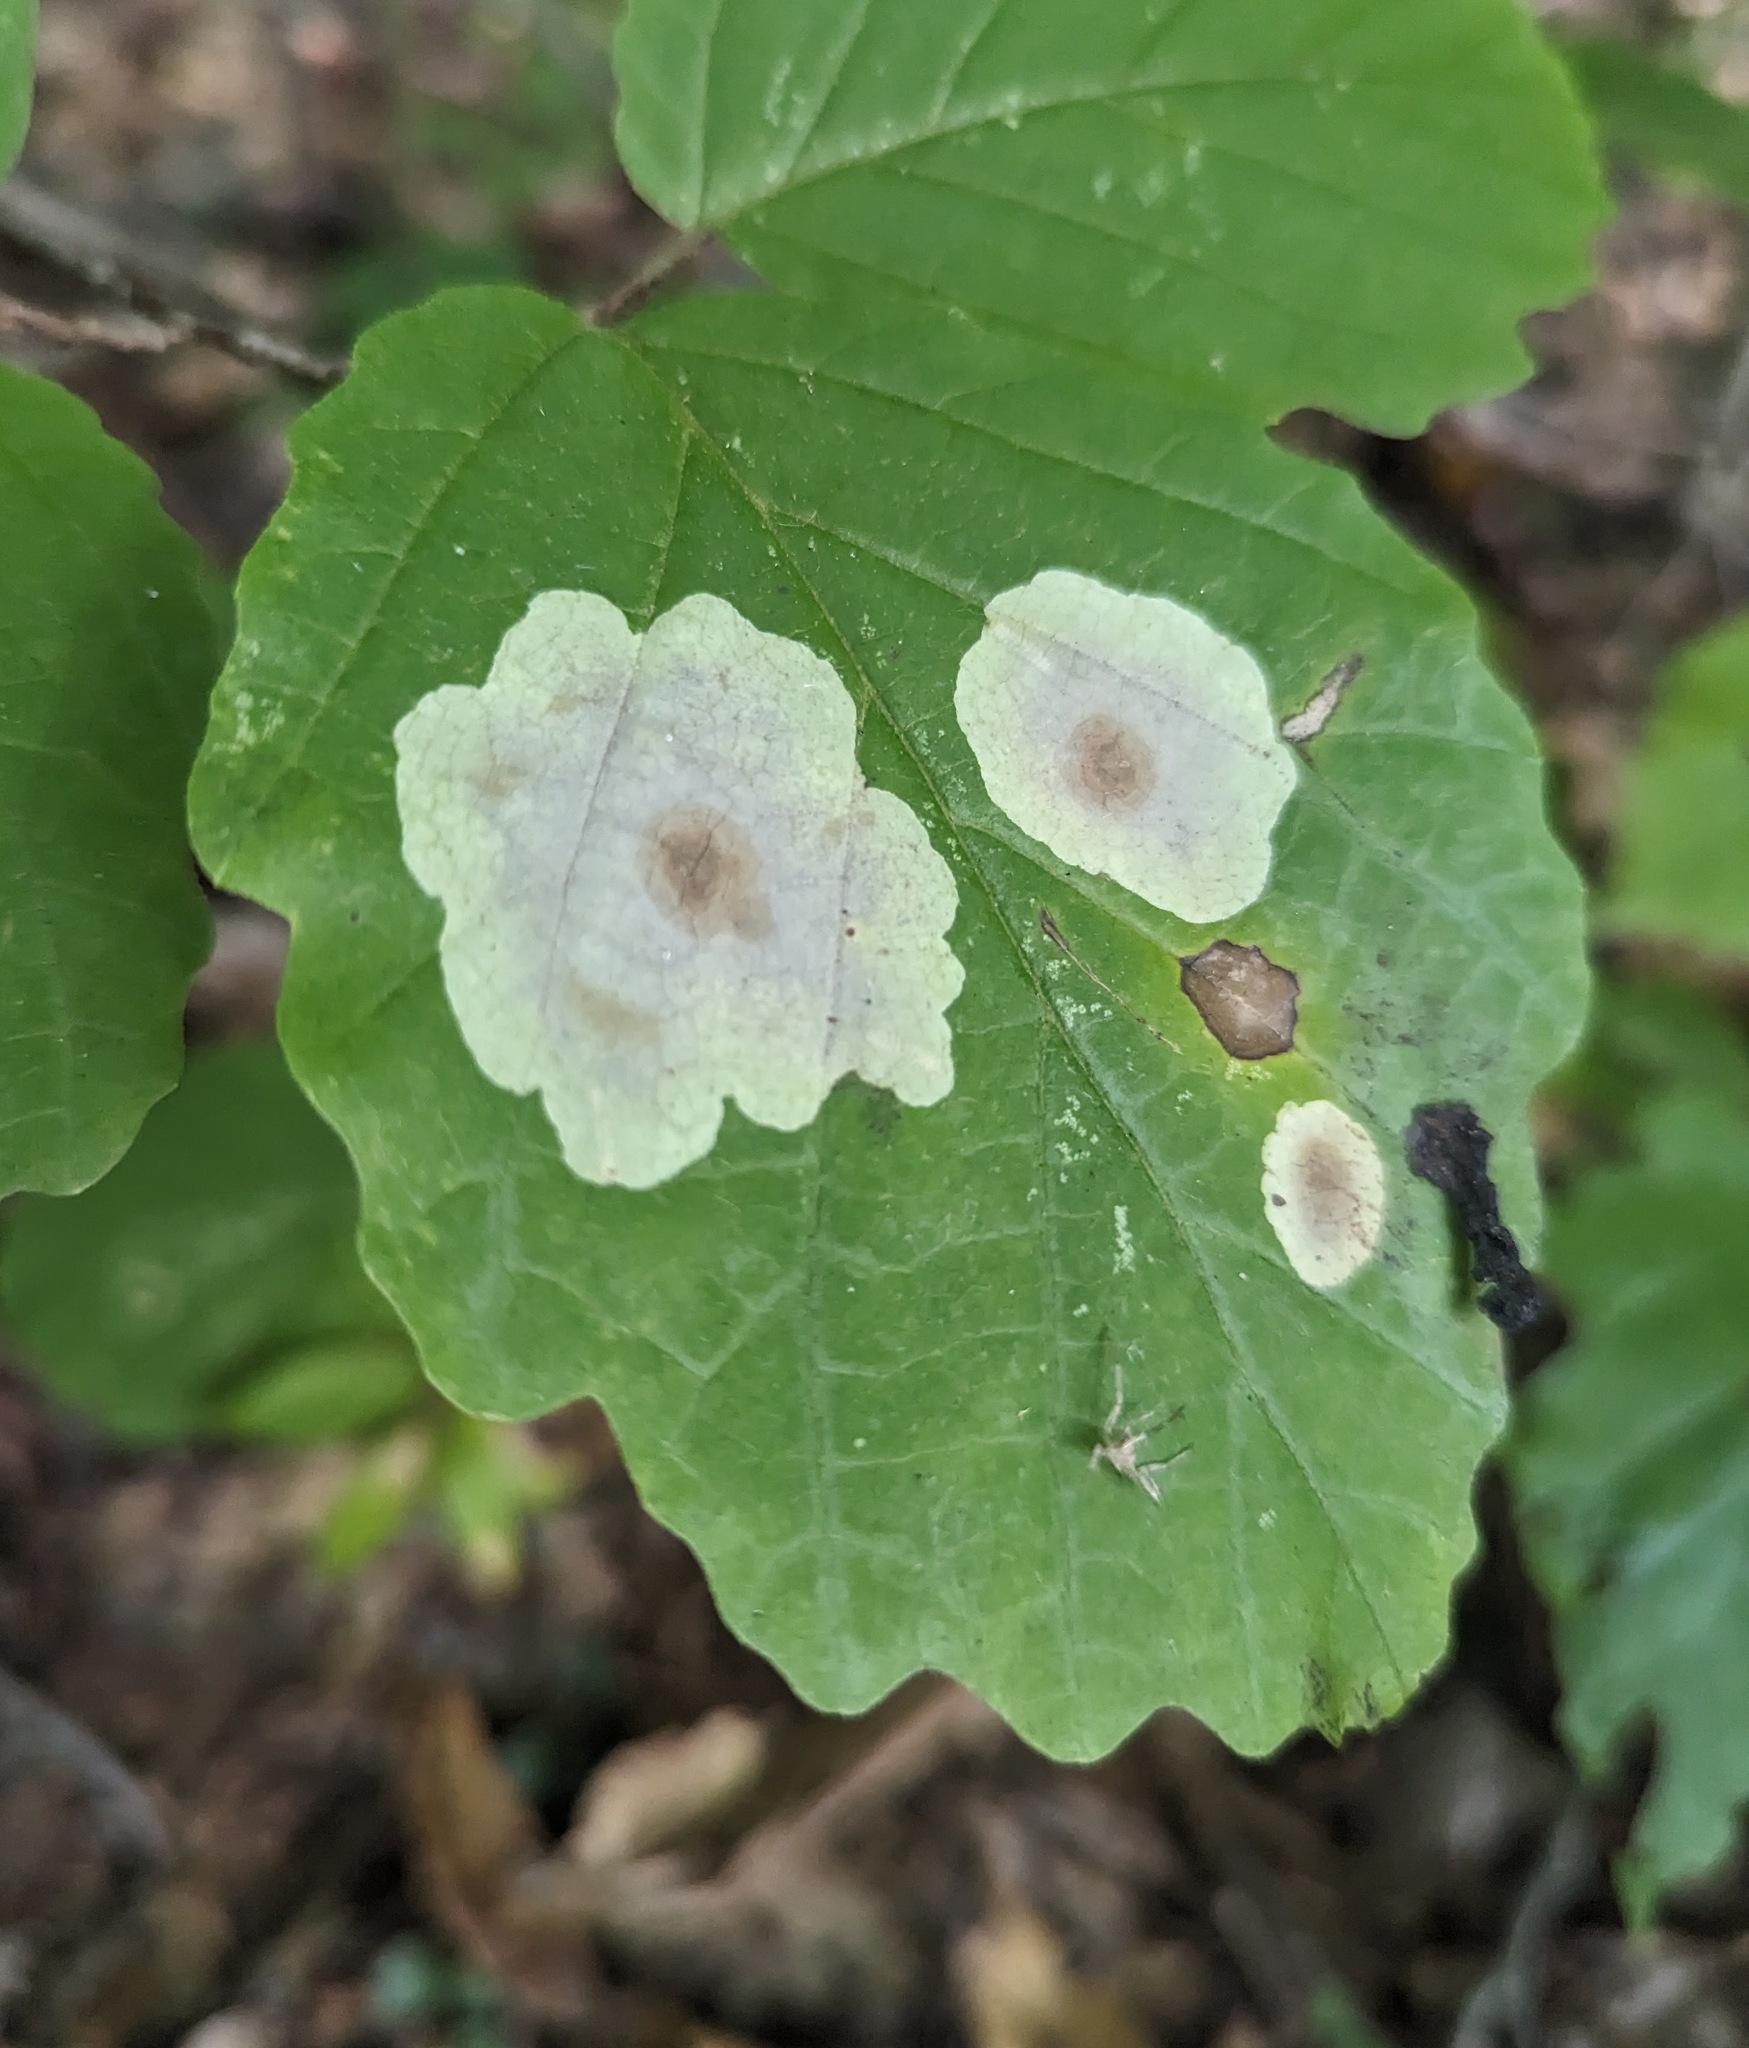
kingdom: Animalia
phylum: Arthropoda
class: Insecta
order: Lepidoptera
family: Gracillariidae
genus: Cameraria
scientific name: Cameraria hamameliella
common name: Witchhazel leafminer
